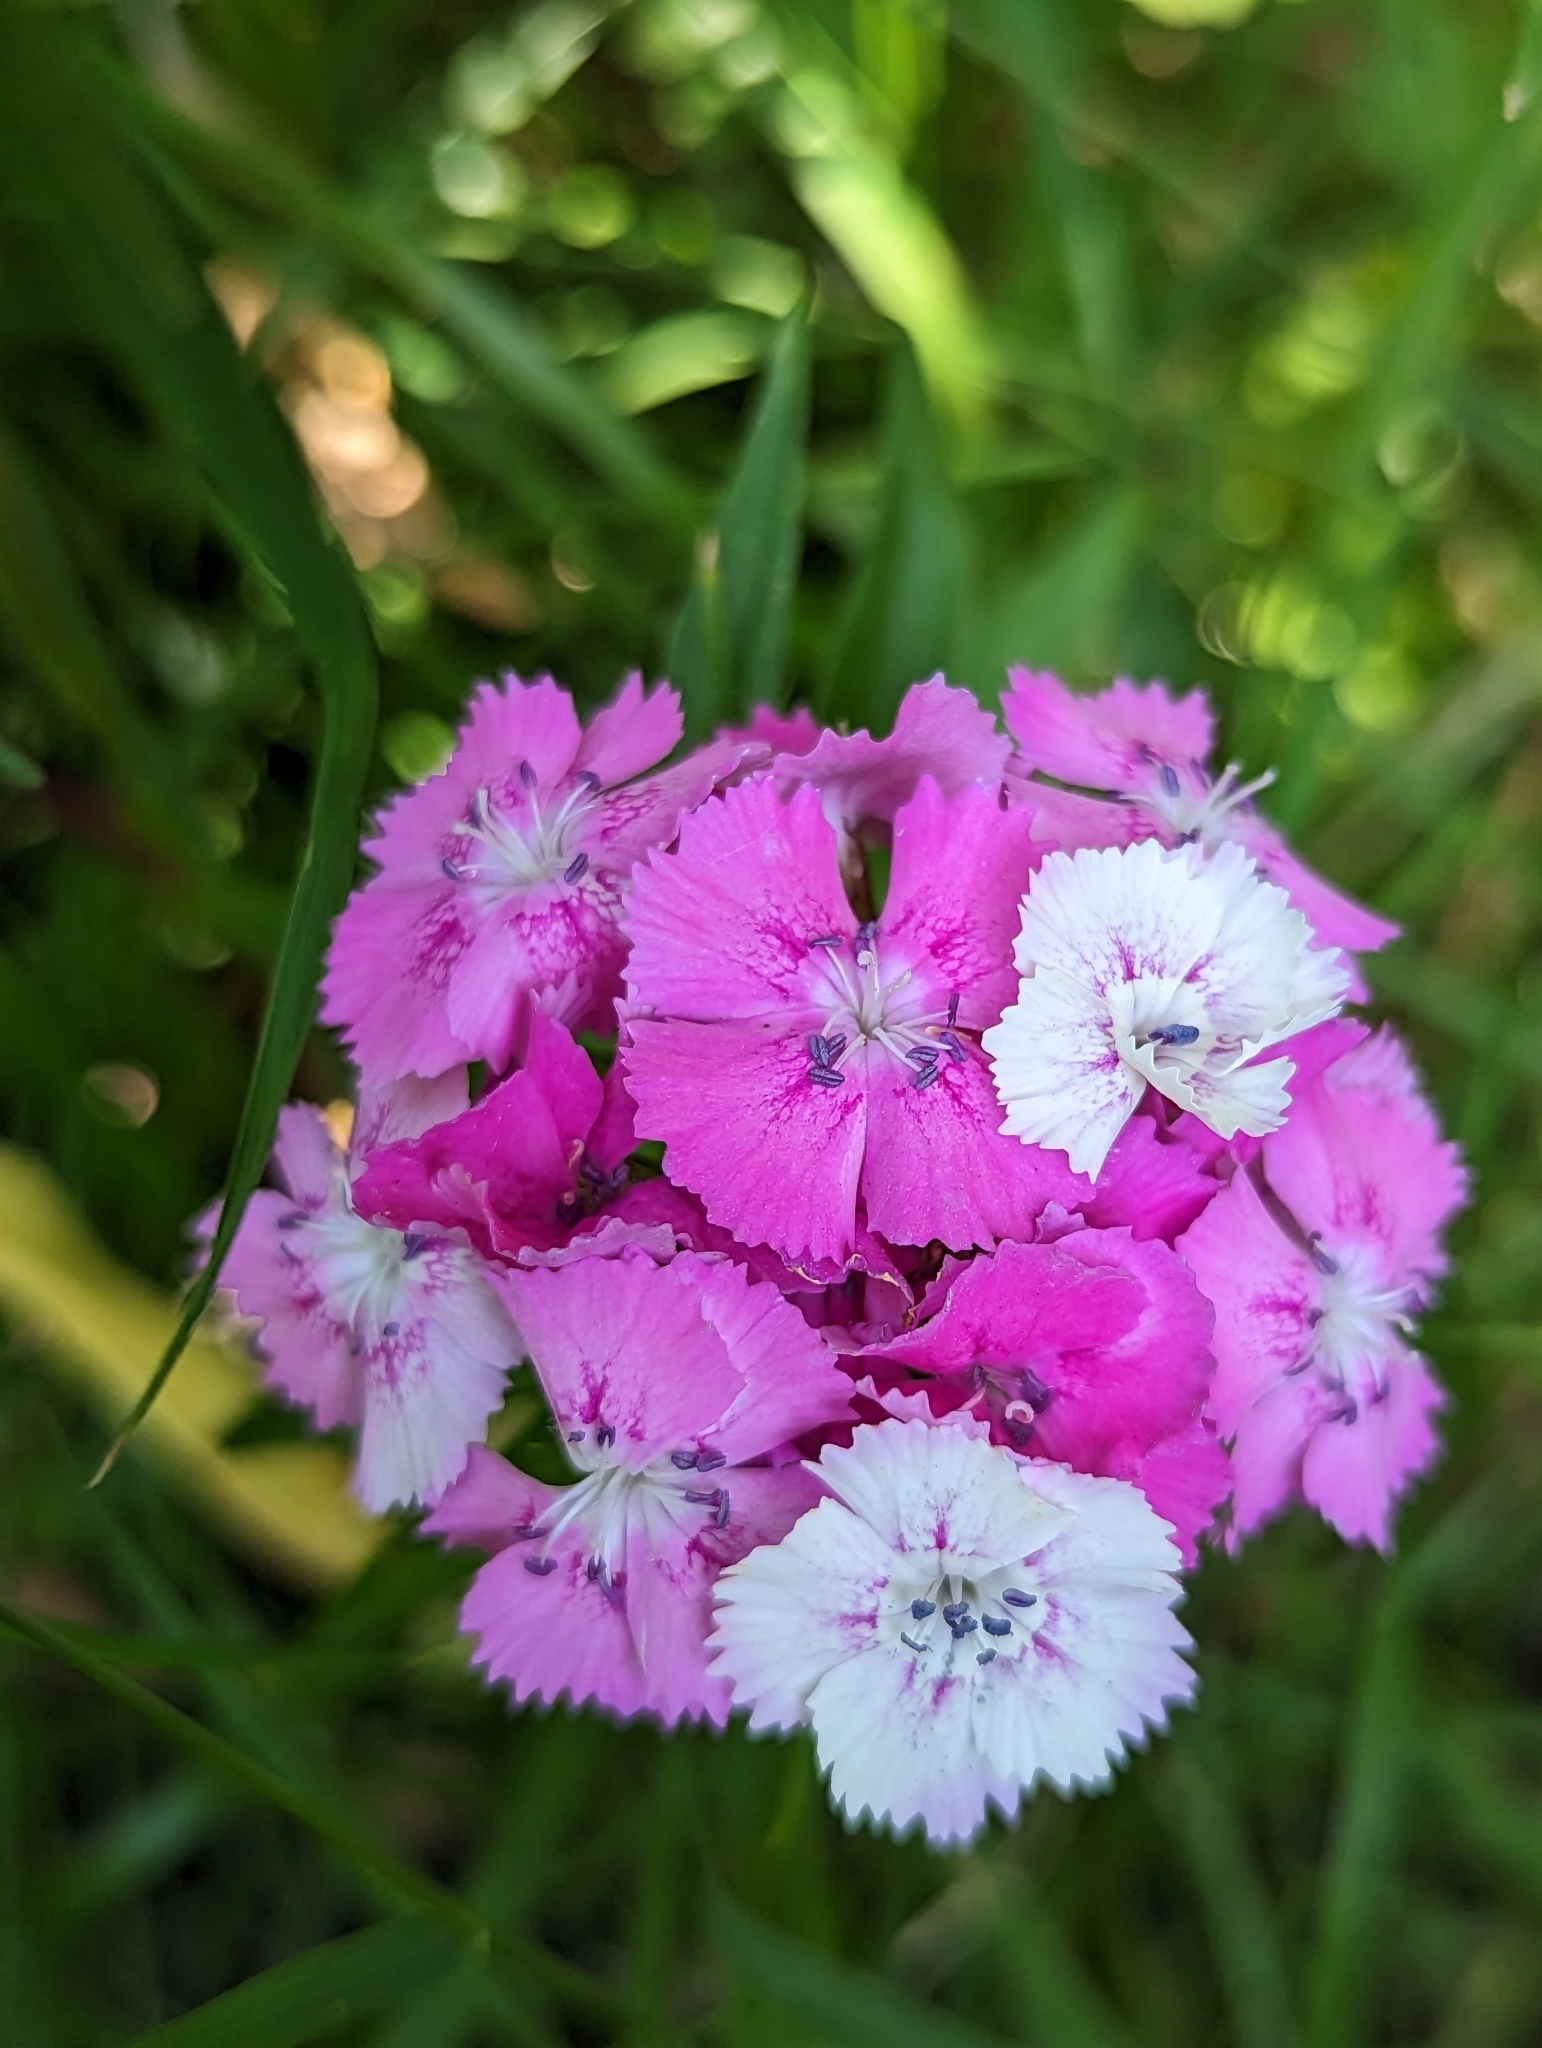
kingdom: Plantae
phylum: Tracheophyta
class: Magnoliopsida
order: Caryophyllales
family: Caryophyllaceae
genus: Dianthus
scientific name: Dianthus barbatus
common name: Sweet-william
